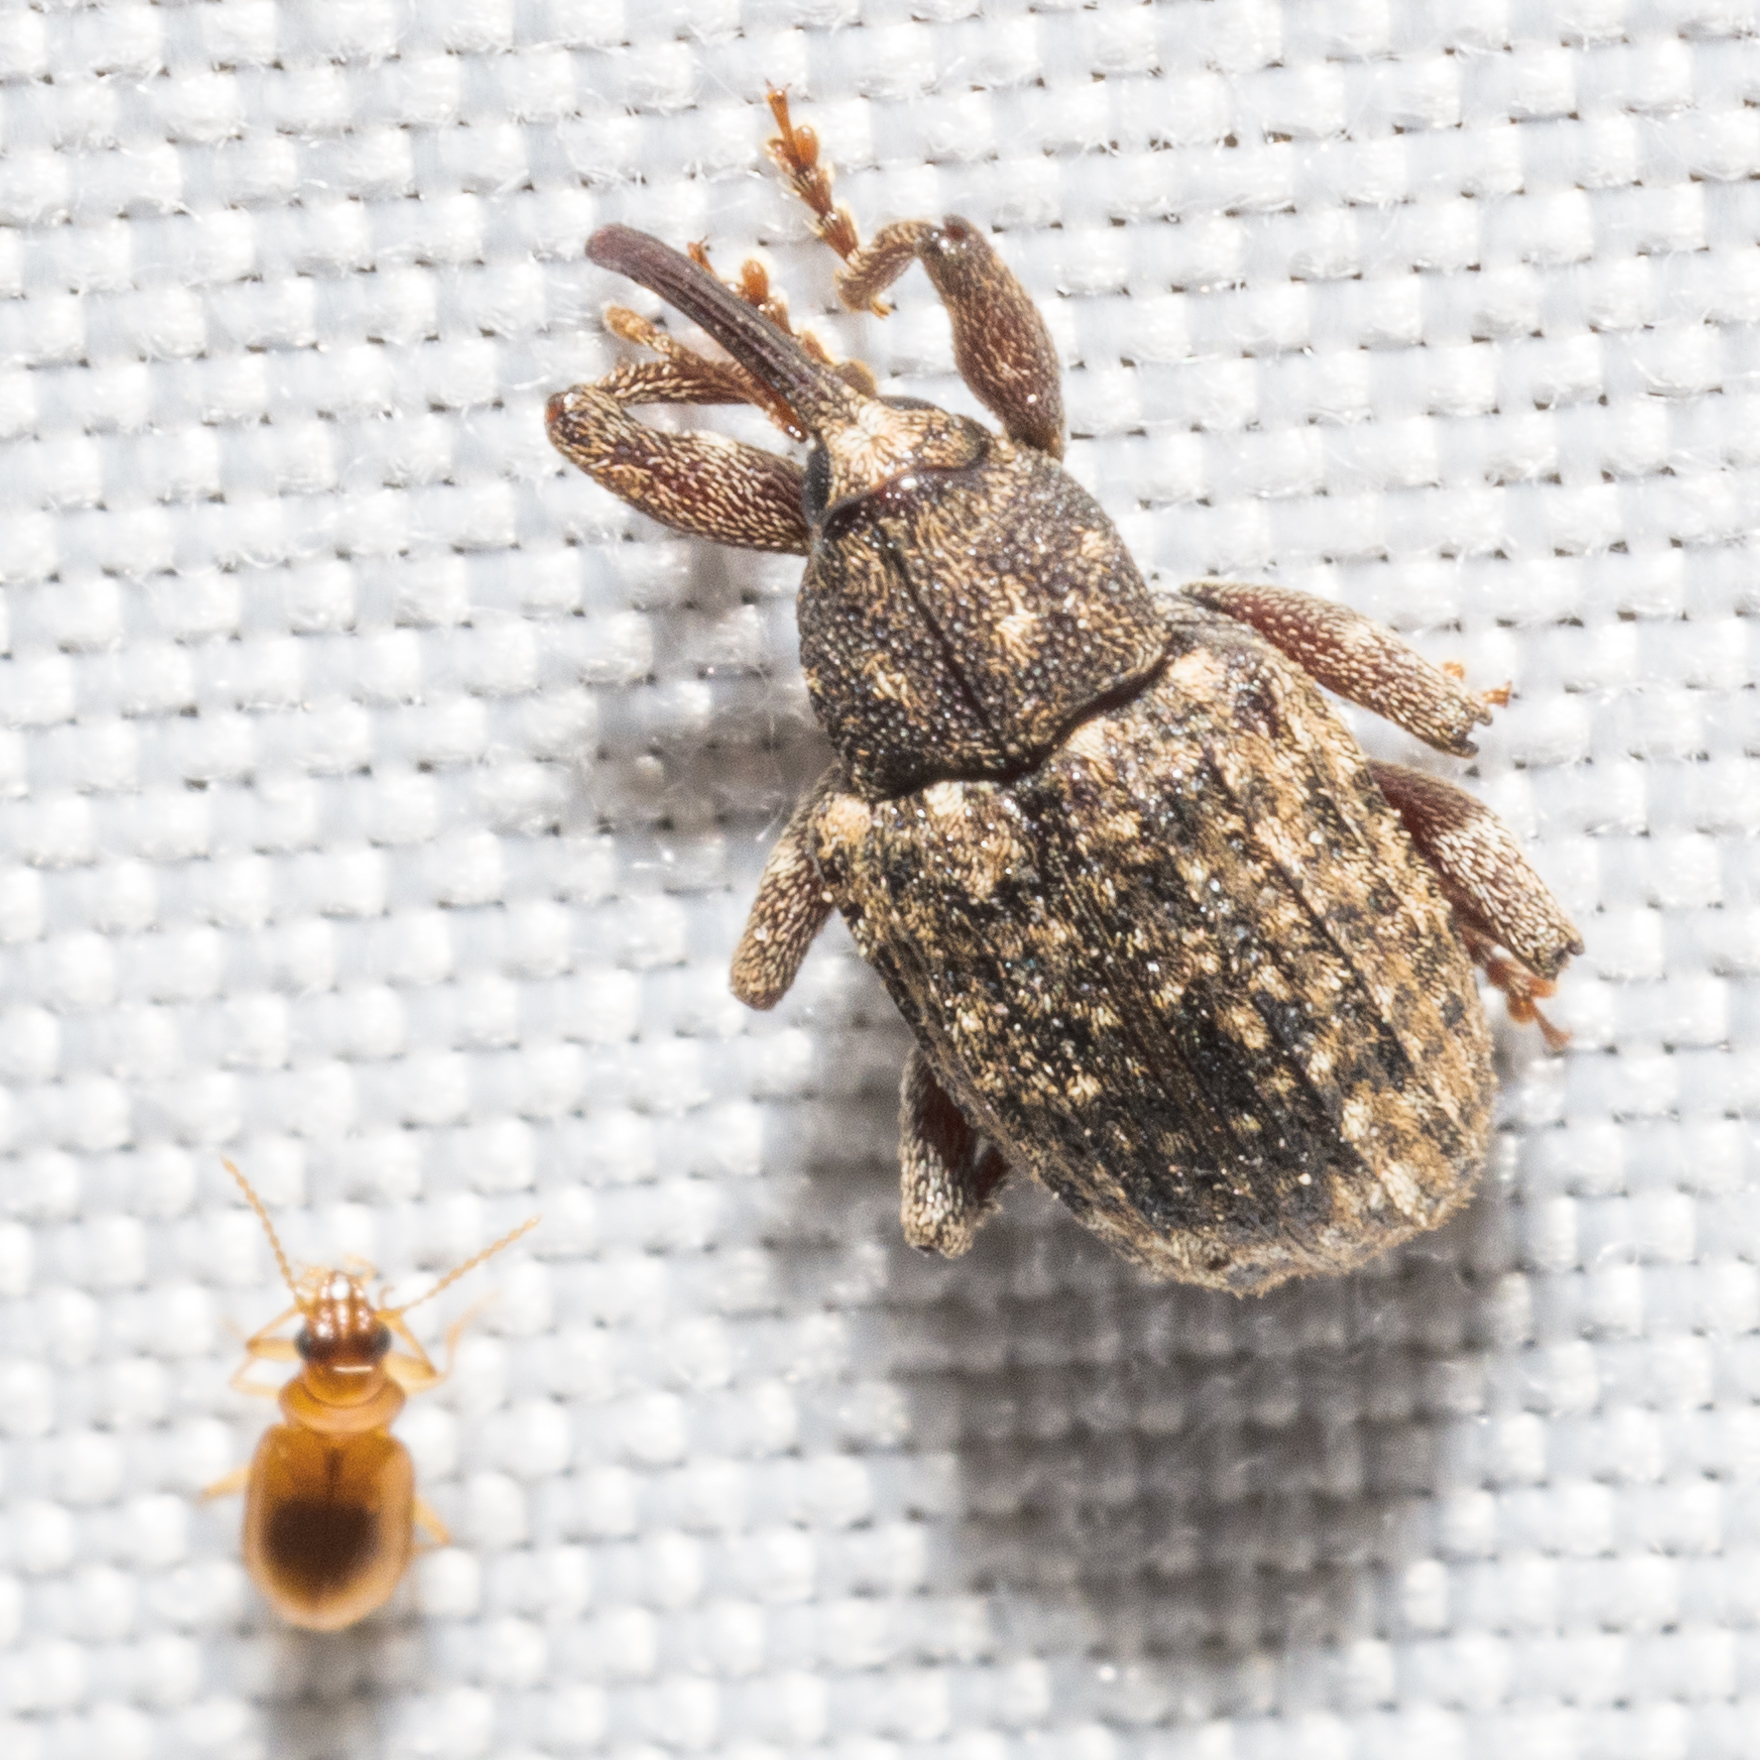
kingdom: Animalia
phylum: Arthropoda
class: Insecta
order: Coleoptera
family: Curculionidae
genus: Conotrachelus
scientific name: Conotrachelus posticatus
